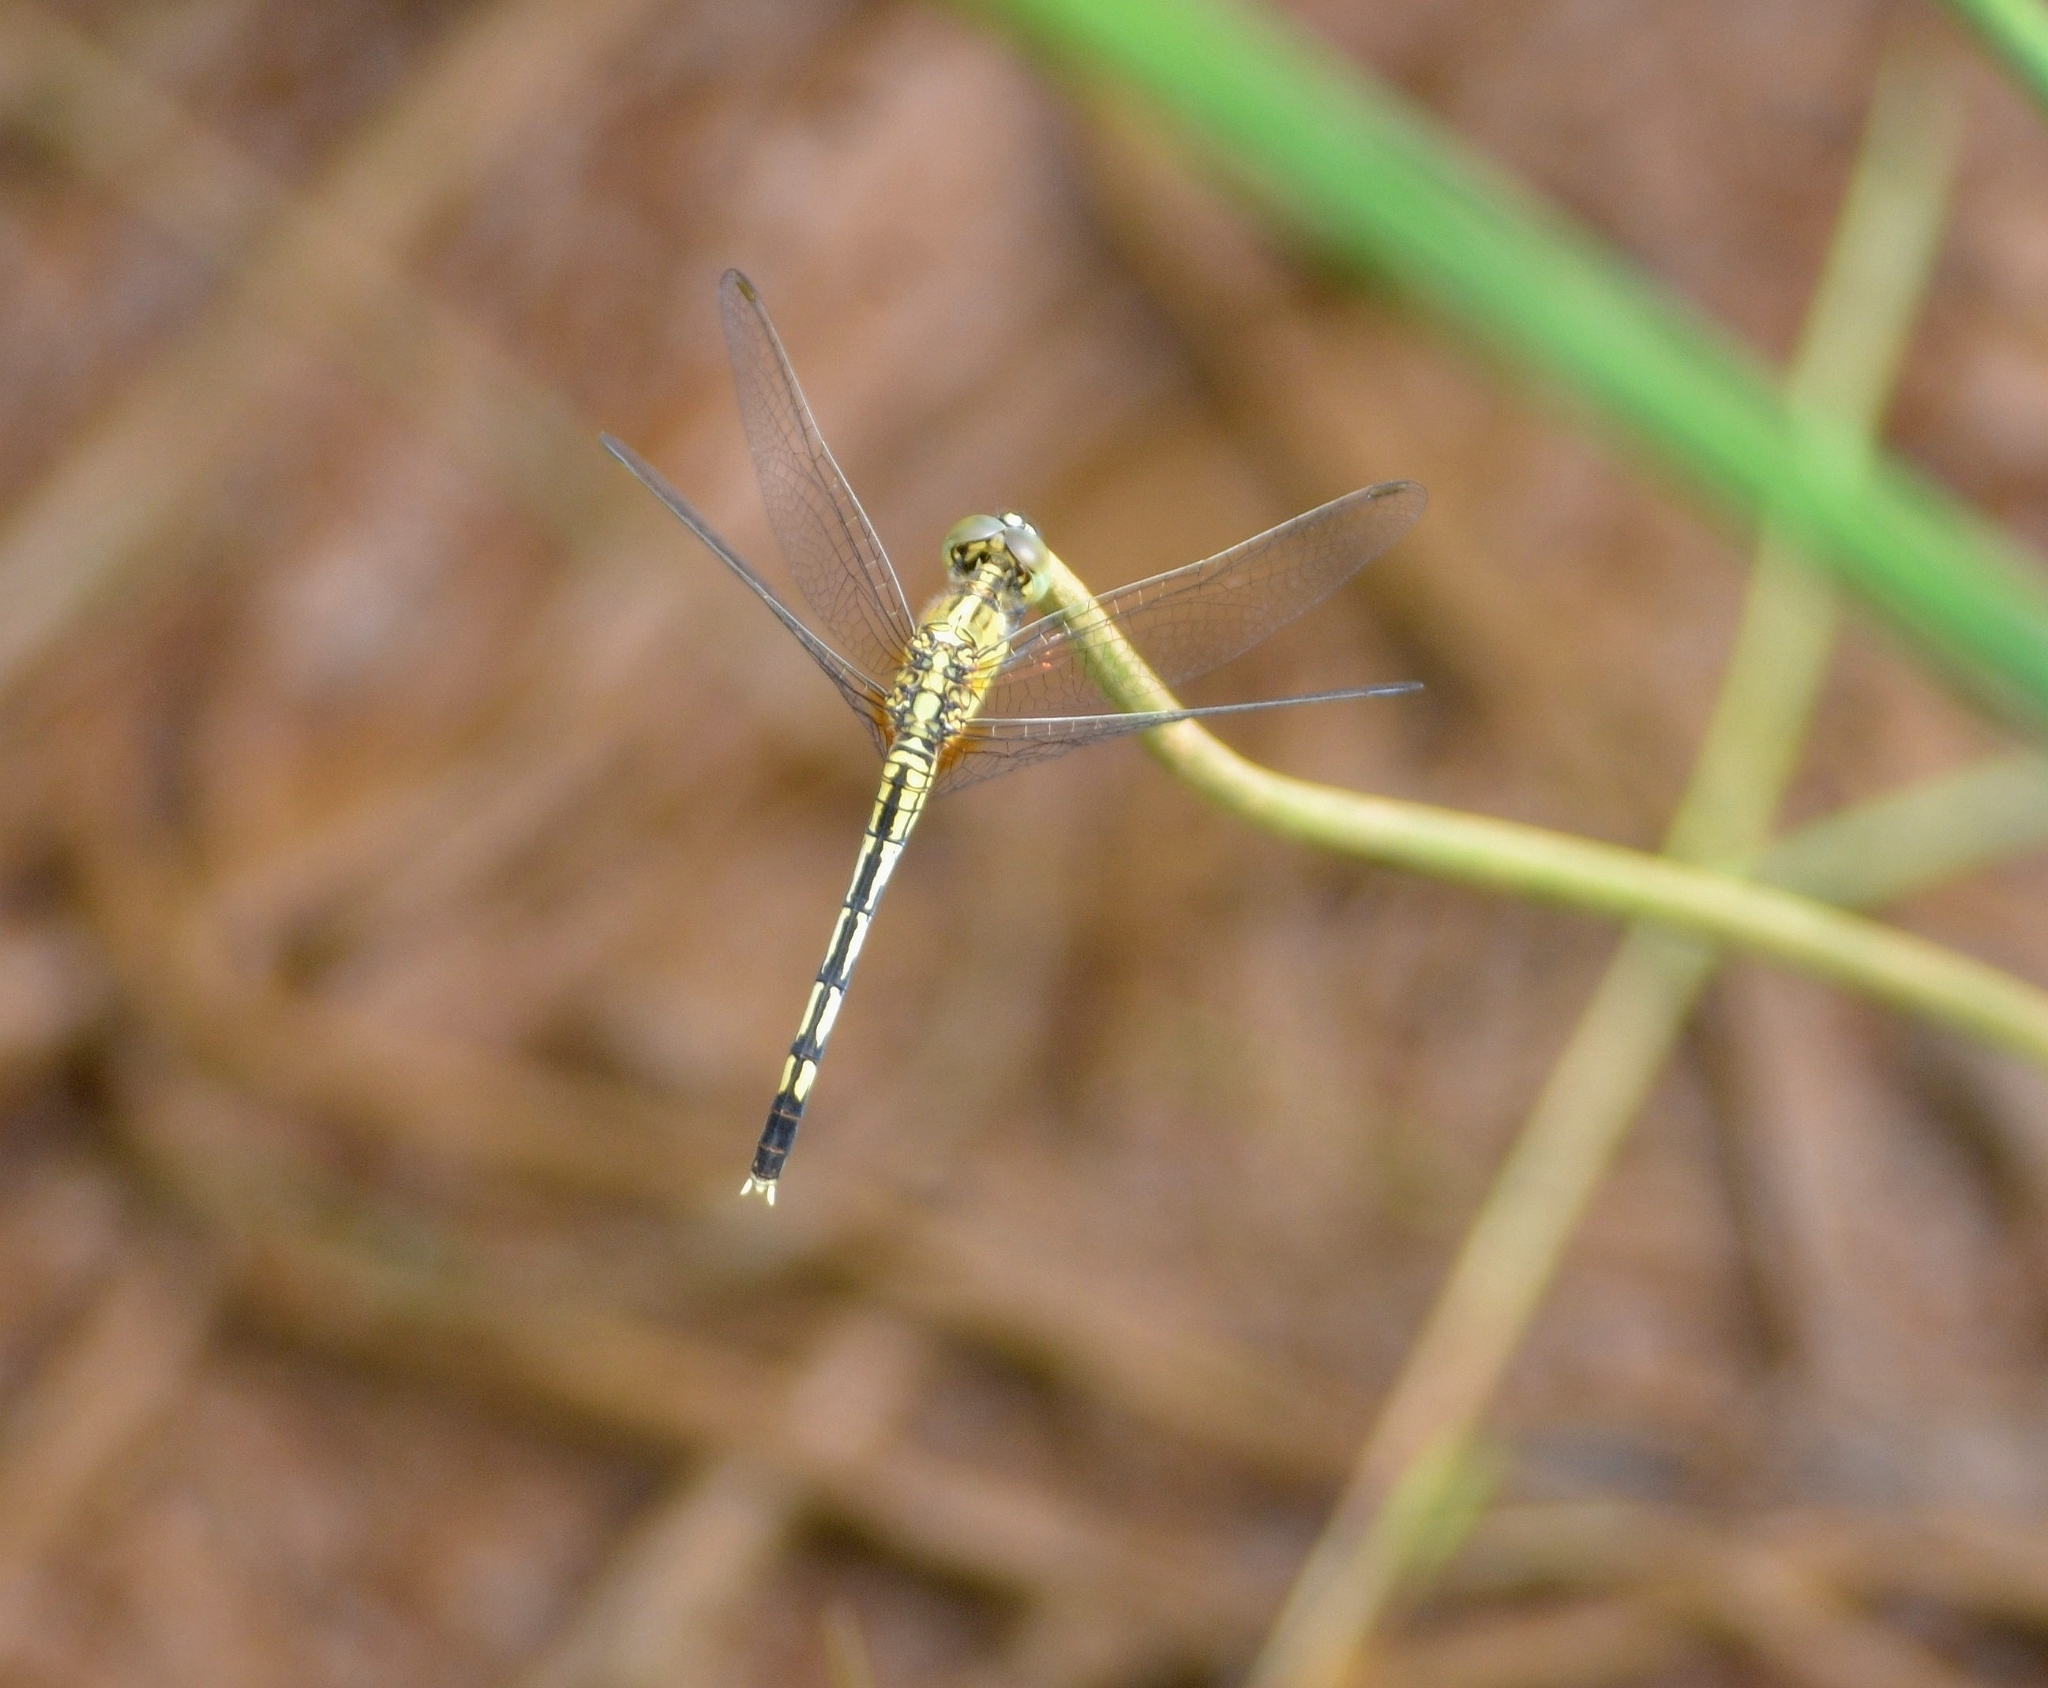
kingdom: Animalia
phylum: Arthropoda
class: Insecta
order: Odonata
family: Libellulidae
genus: Diplacodes
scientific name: Diplacodes trivialis
